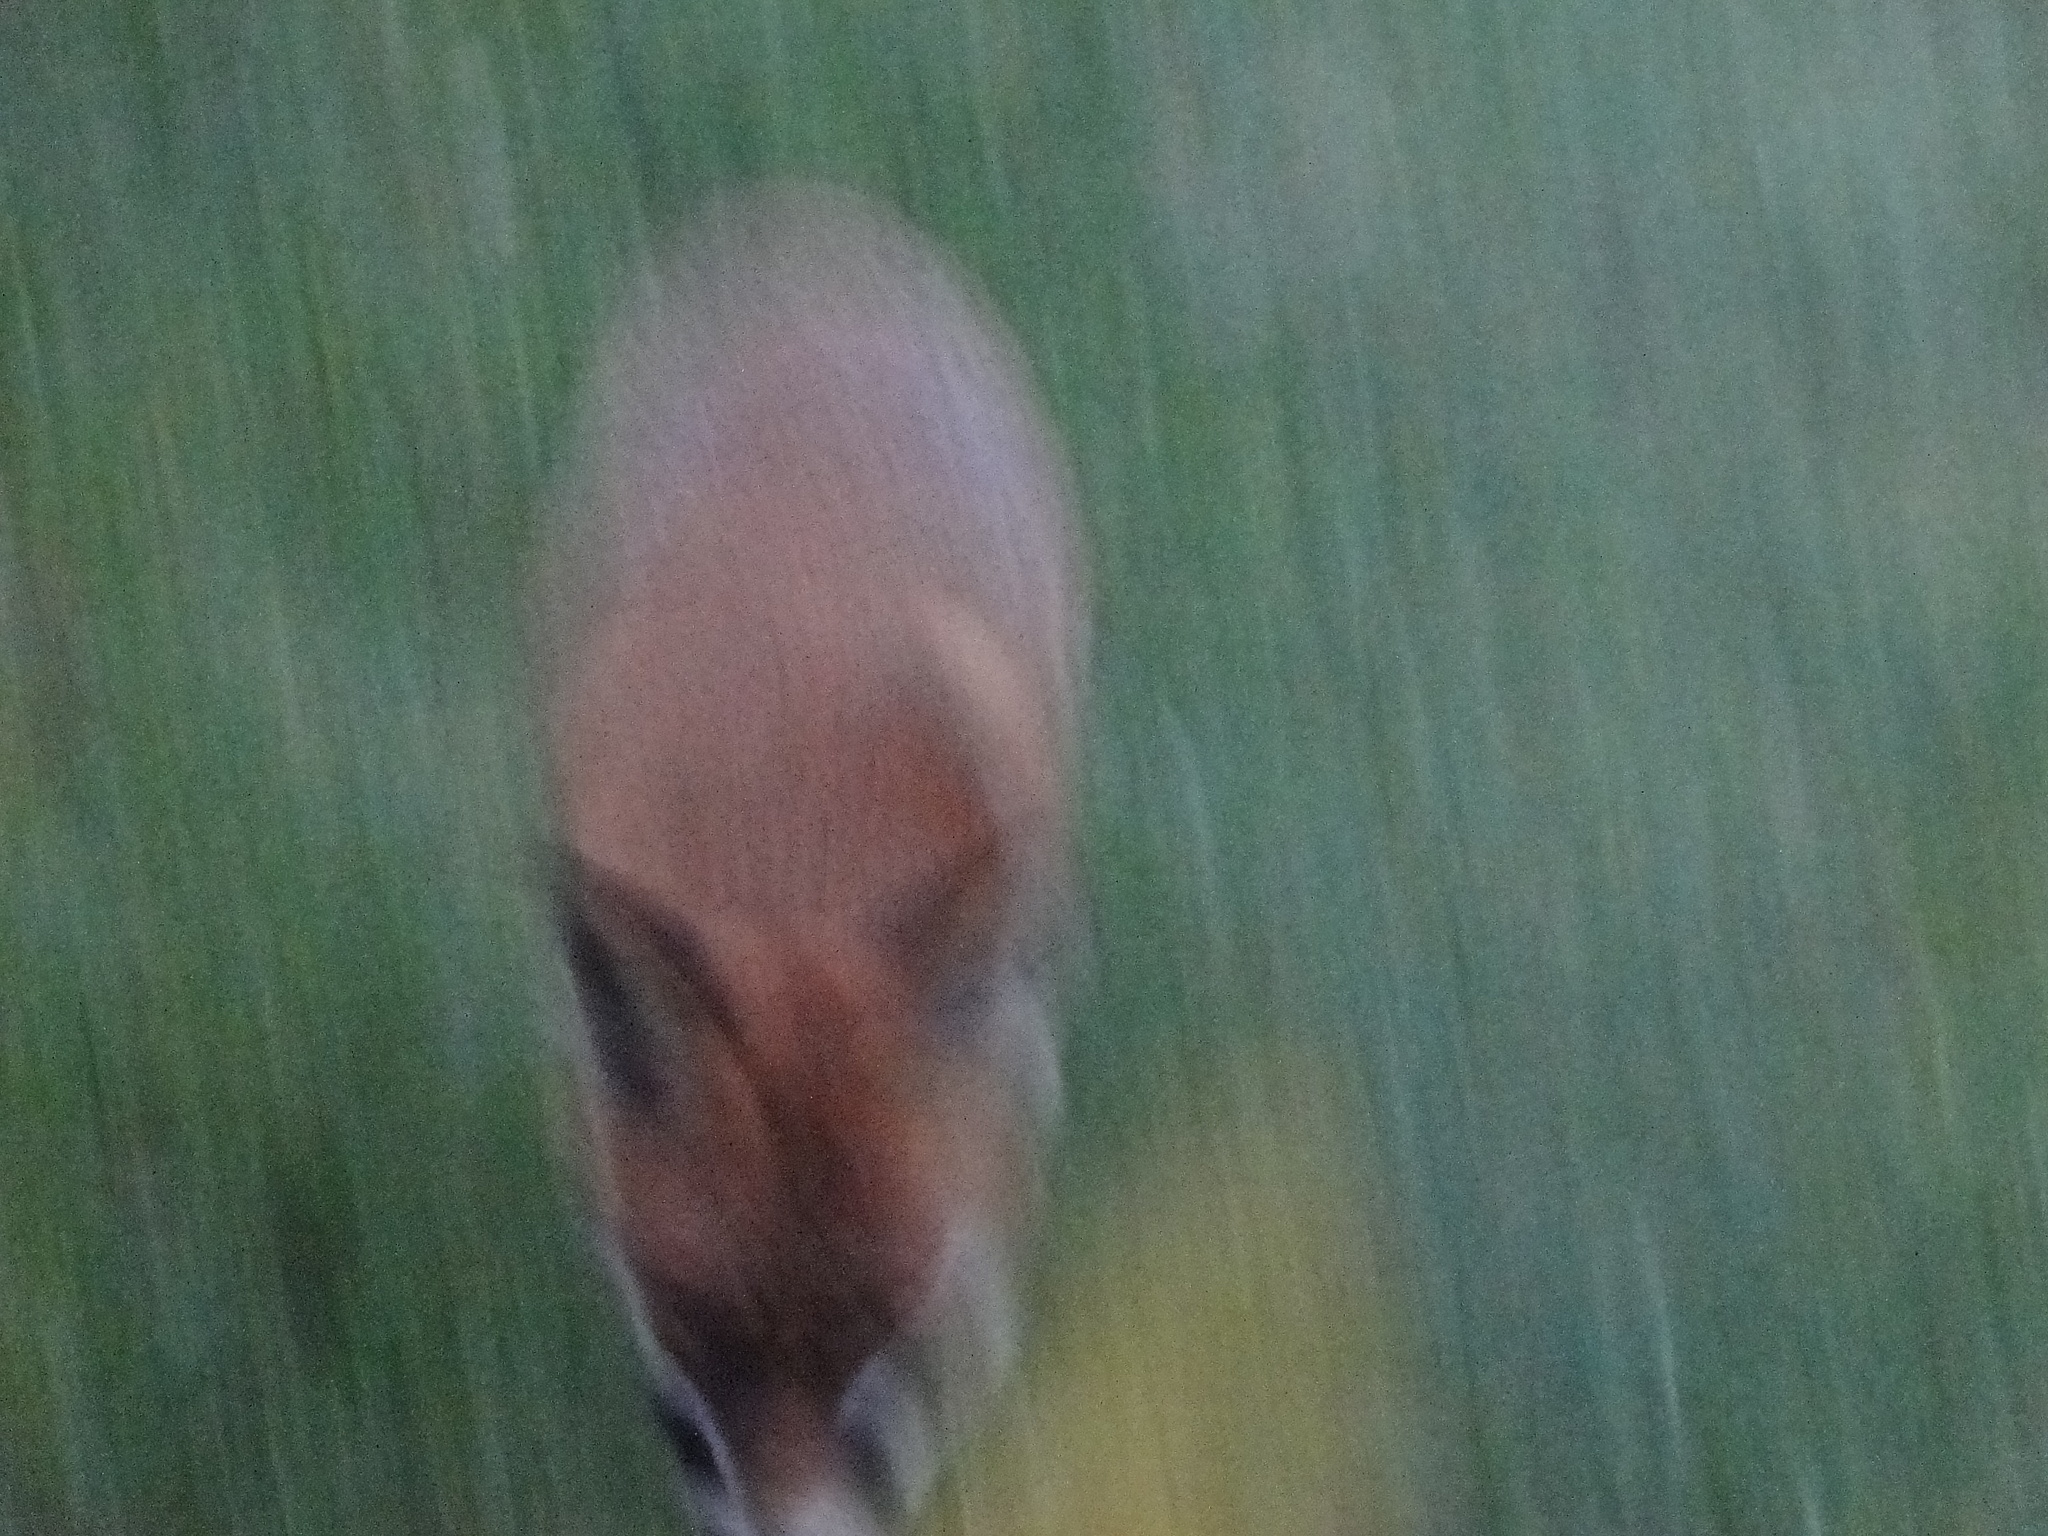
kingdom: Animalia
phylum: Chordata
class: Mammalia
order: Carnivora
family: Canidae
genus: Vulpes
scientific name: Vulpes vulpes
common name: Red fox
